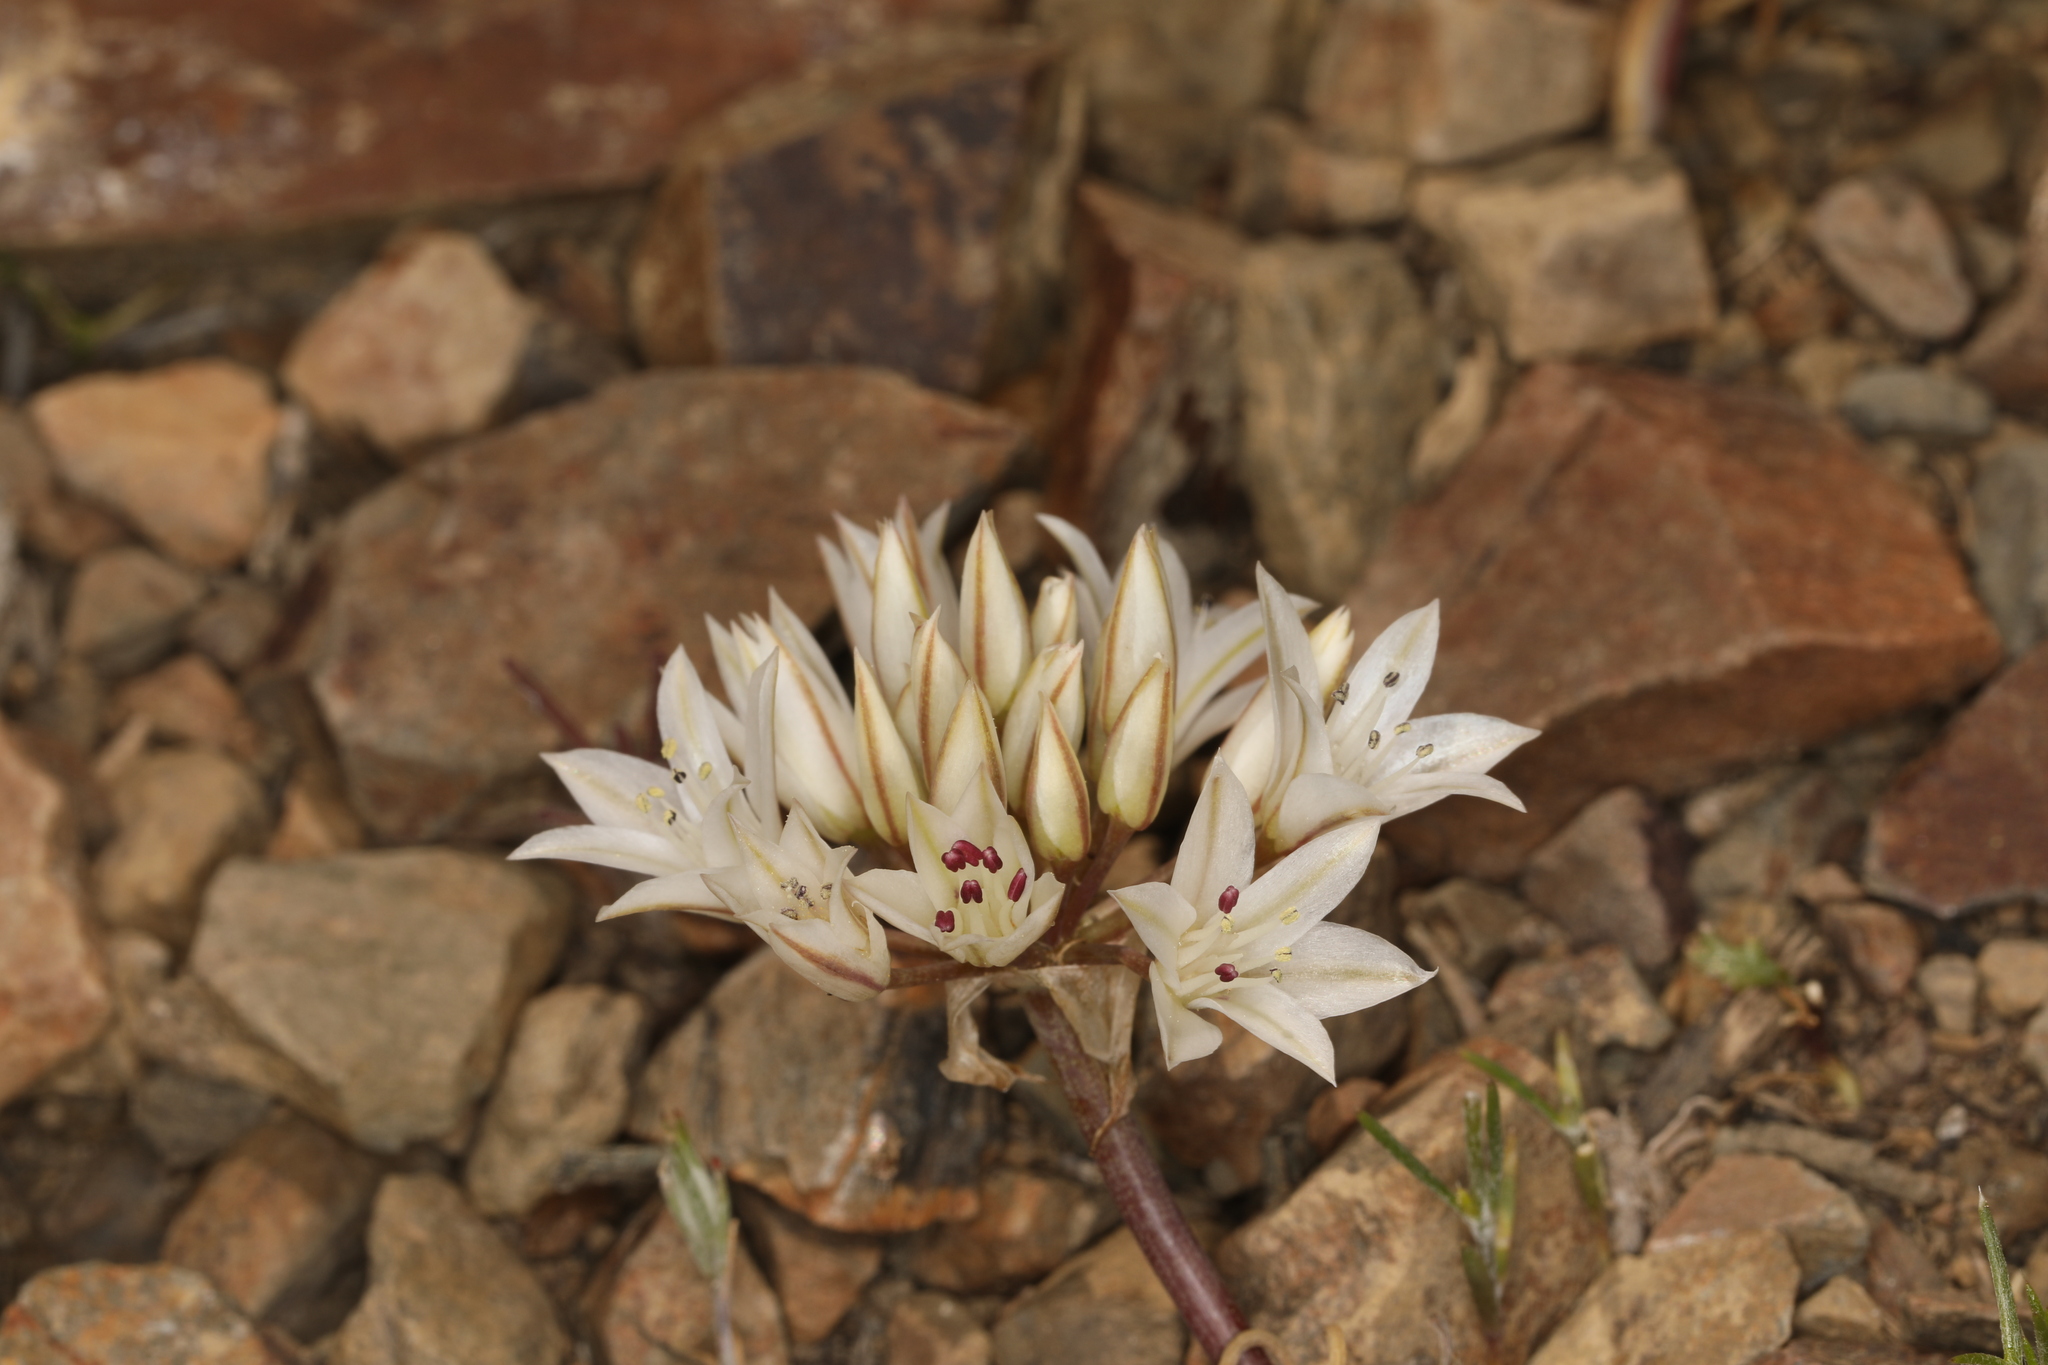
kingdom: Plantae
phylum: Tracheophyta
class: Liliopsida
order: Asparagales
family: Amaryllidaceae
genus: Allium
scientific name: Allium atrorubens
